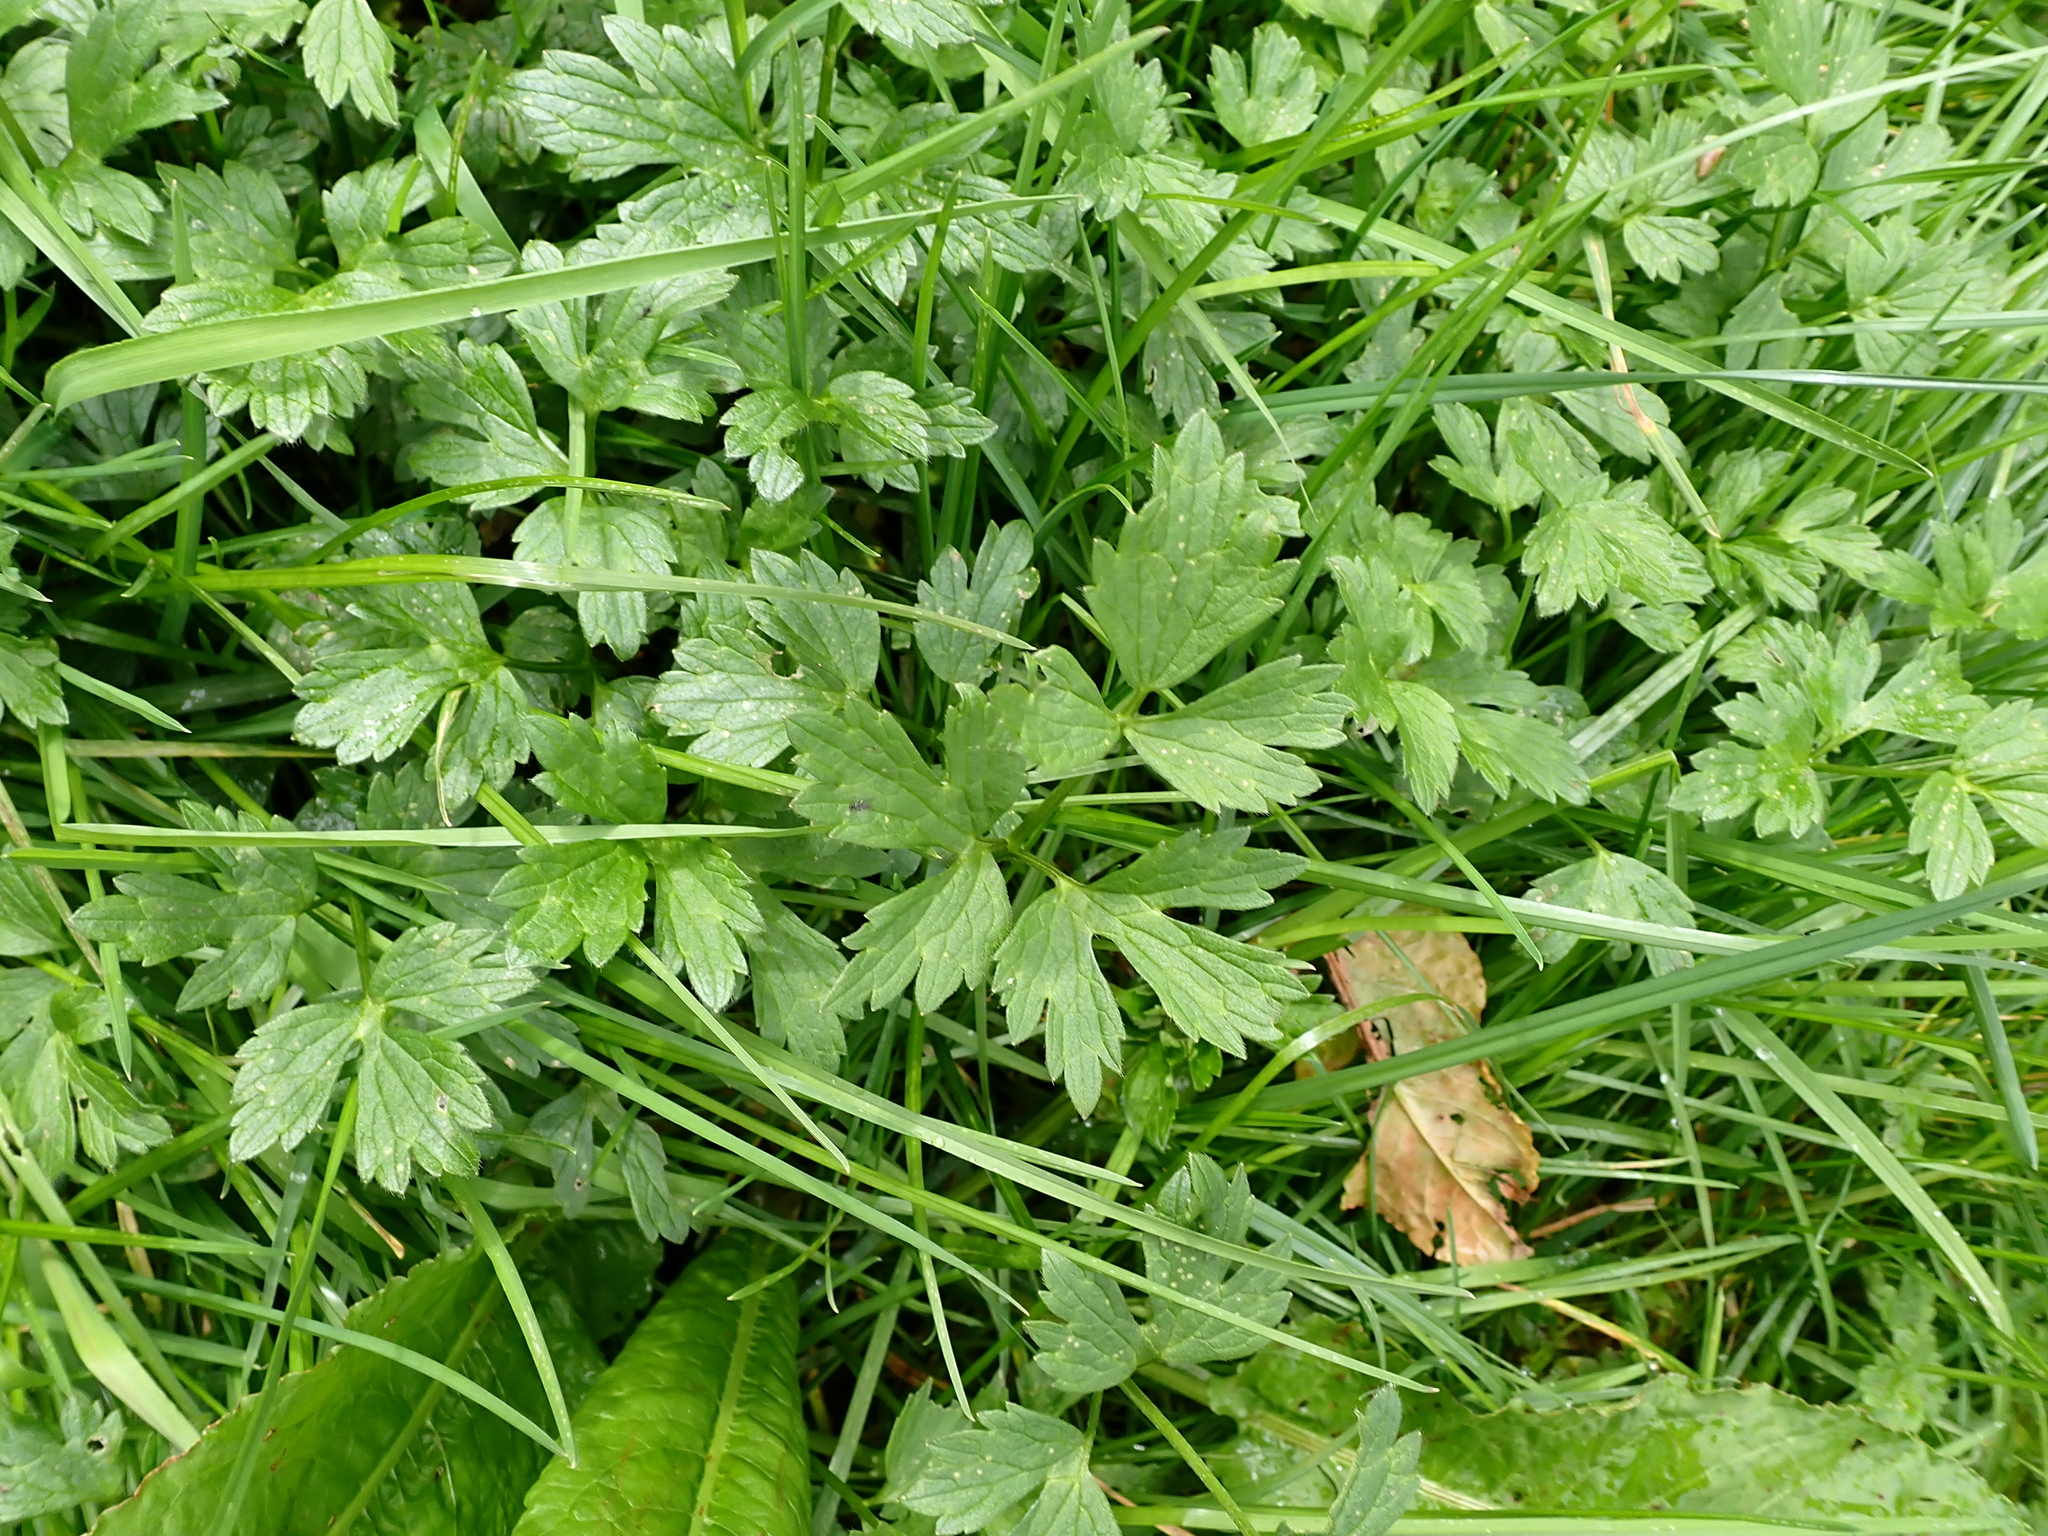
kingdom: Plantae
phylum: Tracheophyta
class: Magnoliopsida
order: Ranunculales
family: Ranunculaceae
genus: Ranunculus
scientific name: Ranunculus repens
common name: Creeping buttercup
